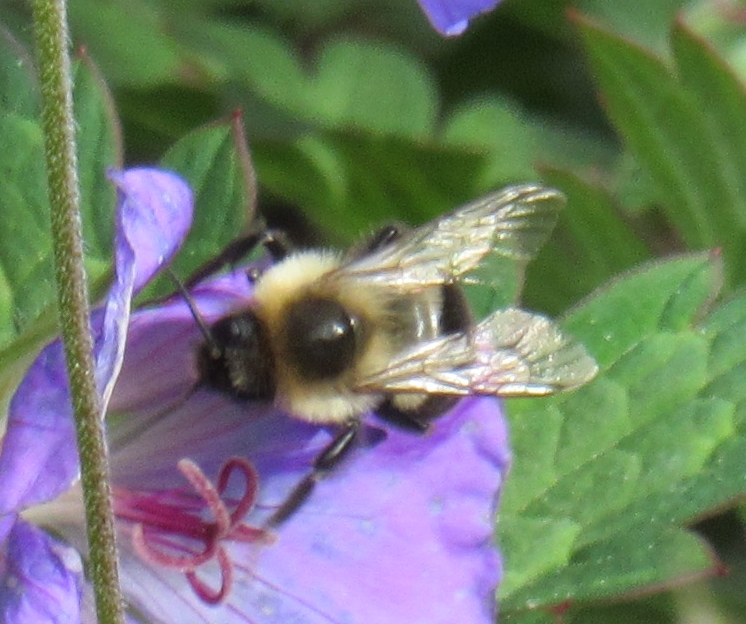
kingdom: Animalia
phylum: Arthropoda
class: Insecta
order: Hymenoptera
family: Apidae
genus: Bombus
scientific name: Bombus impatiens
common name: Common eastern bumble bee
